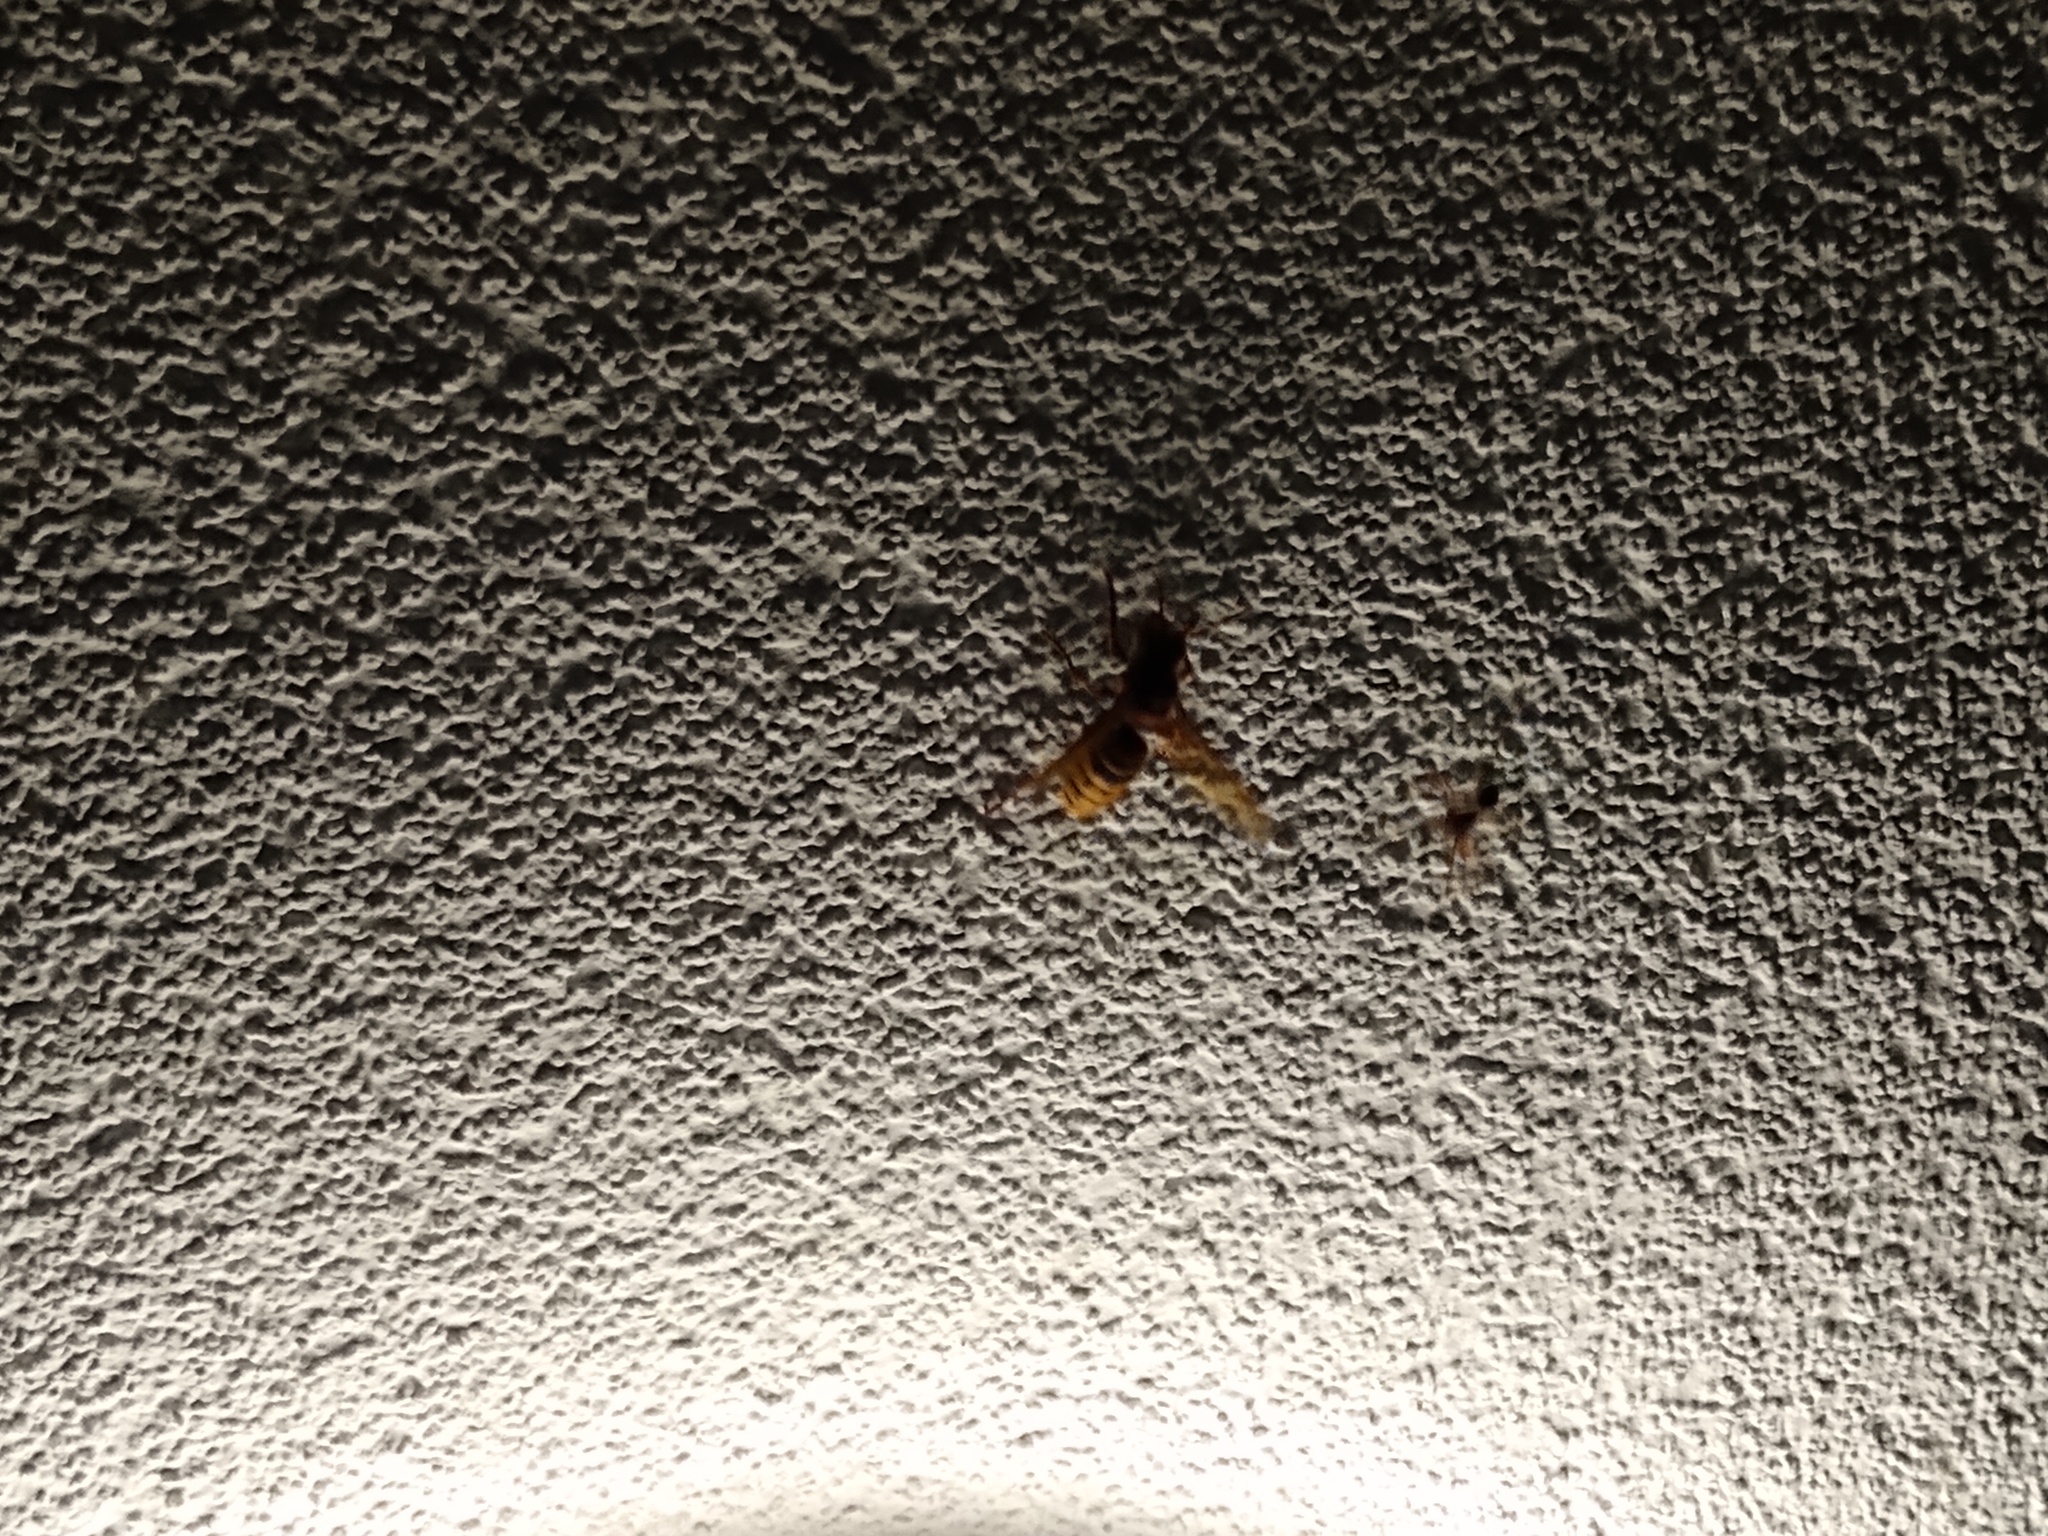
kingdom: Animalia
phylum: Arthropoda
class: Insecta
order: Hymenoptera
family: Vespidae
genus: Vespa
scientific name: Vespa crabro
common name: Hornet
